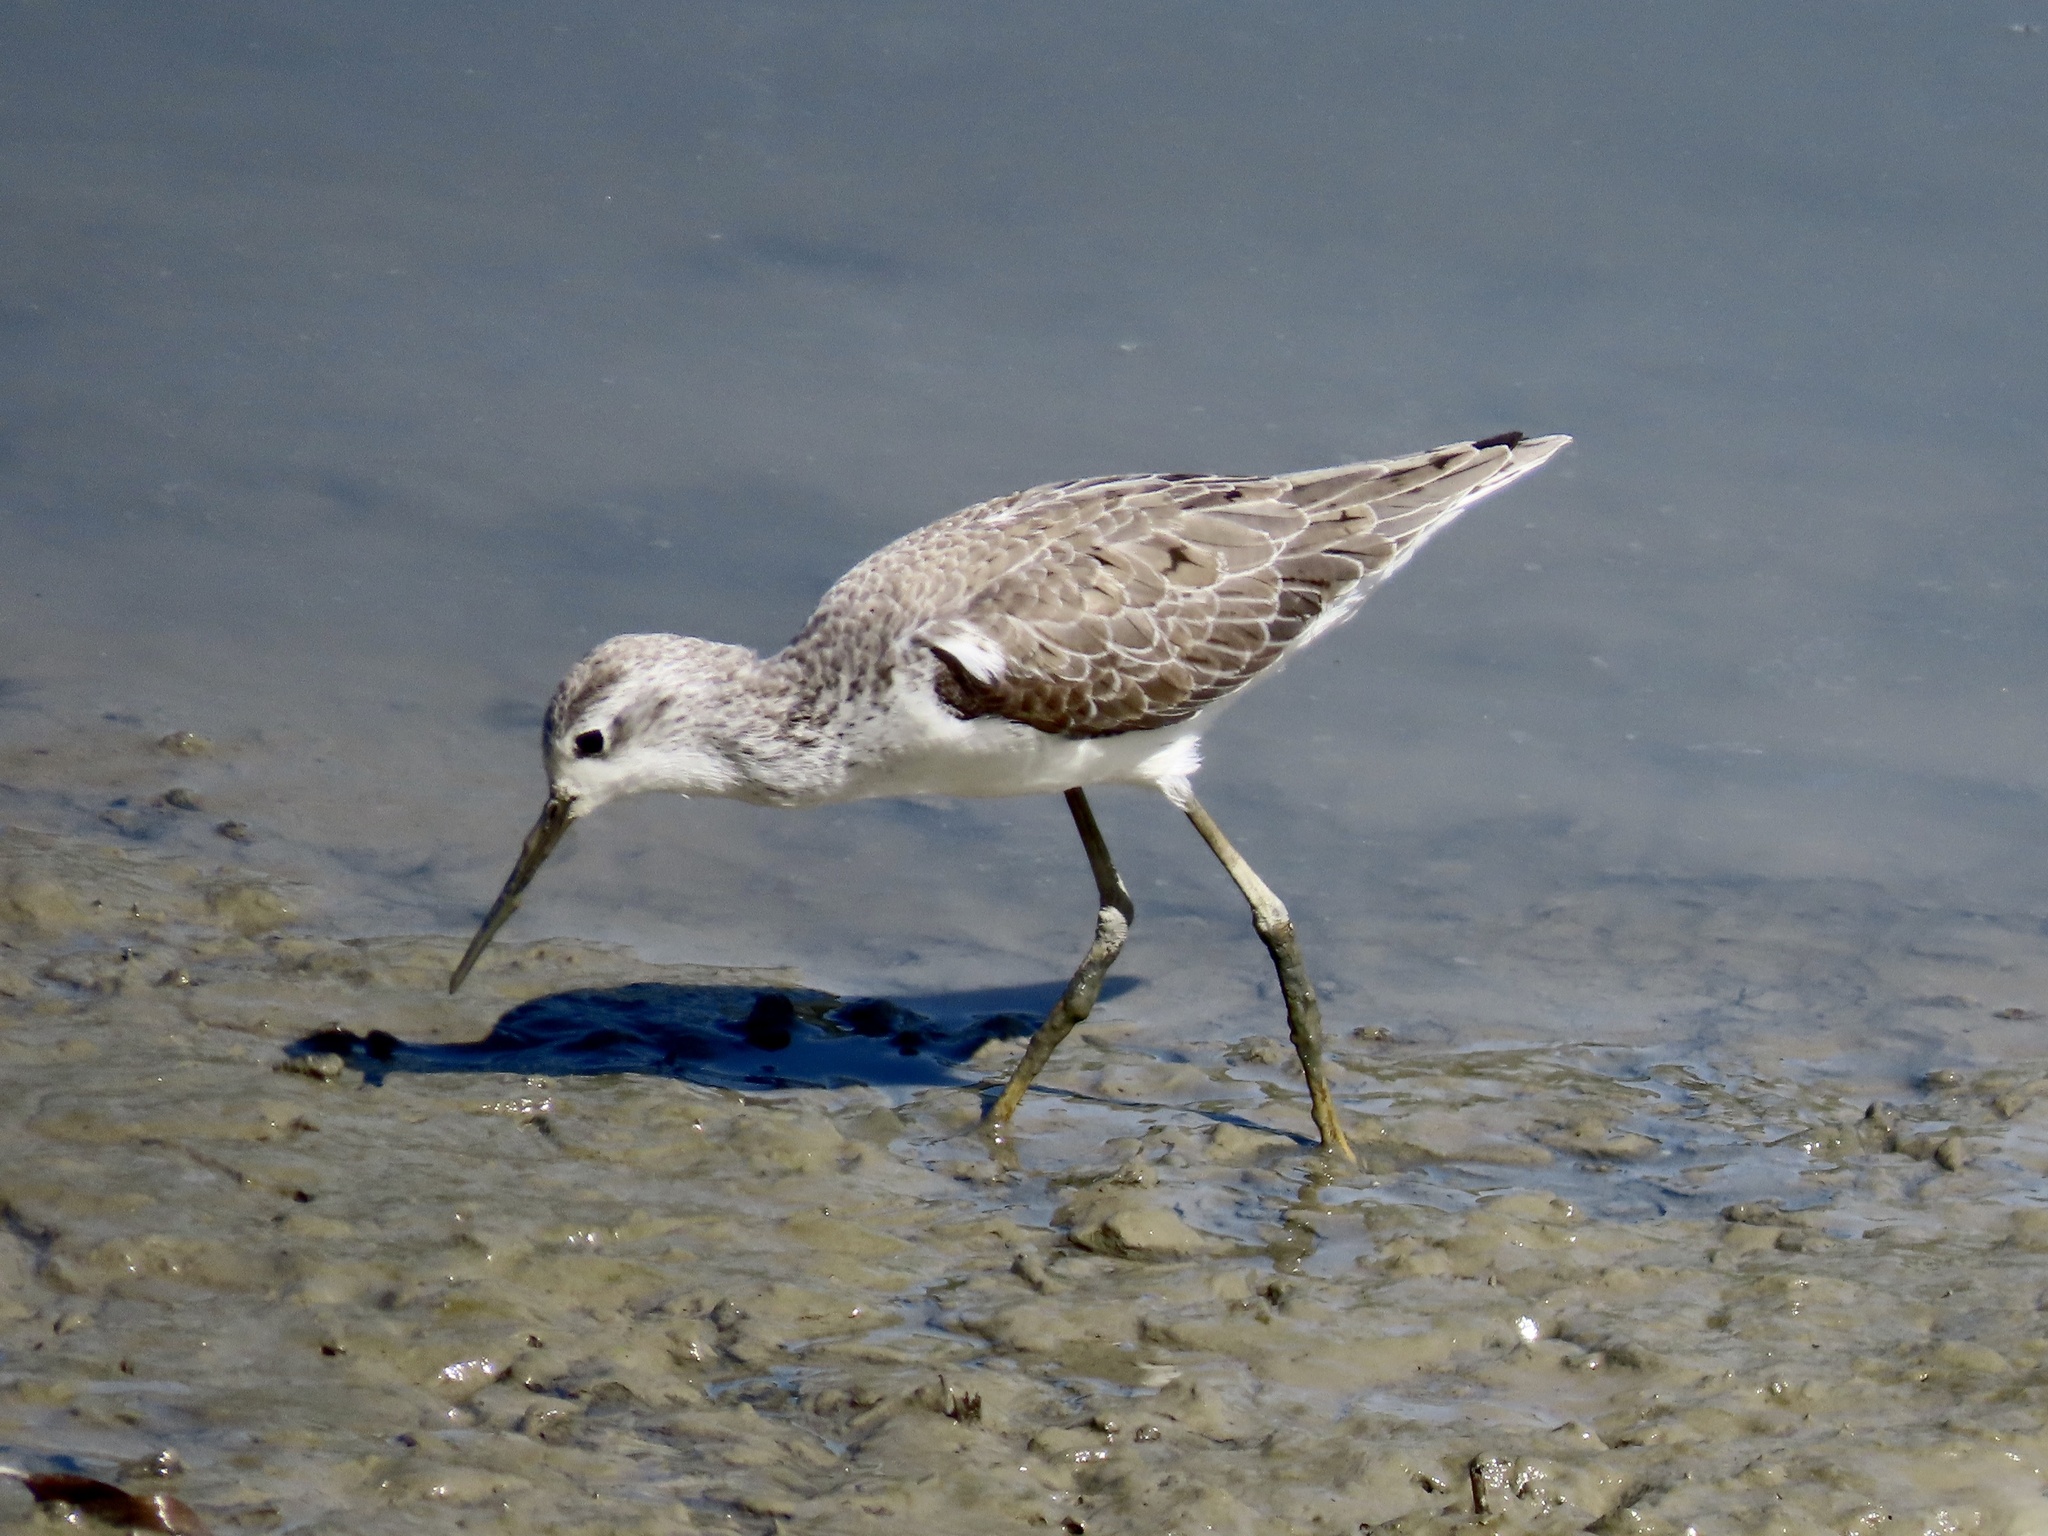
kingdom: Animalia
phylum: Chordata
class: Aves
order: Charadriiformes
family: Scolopacidae
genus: Tringa
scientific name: Tringa stagnatilis
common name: Marsh sandpiper
